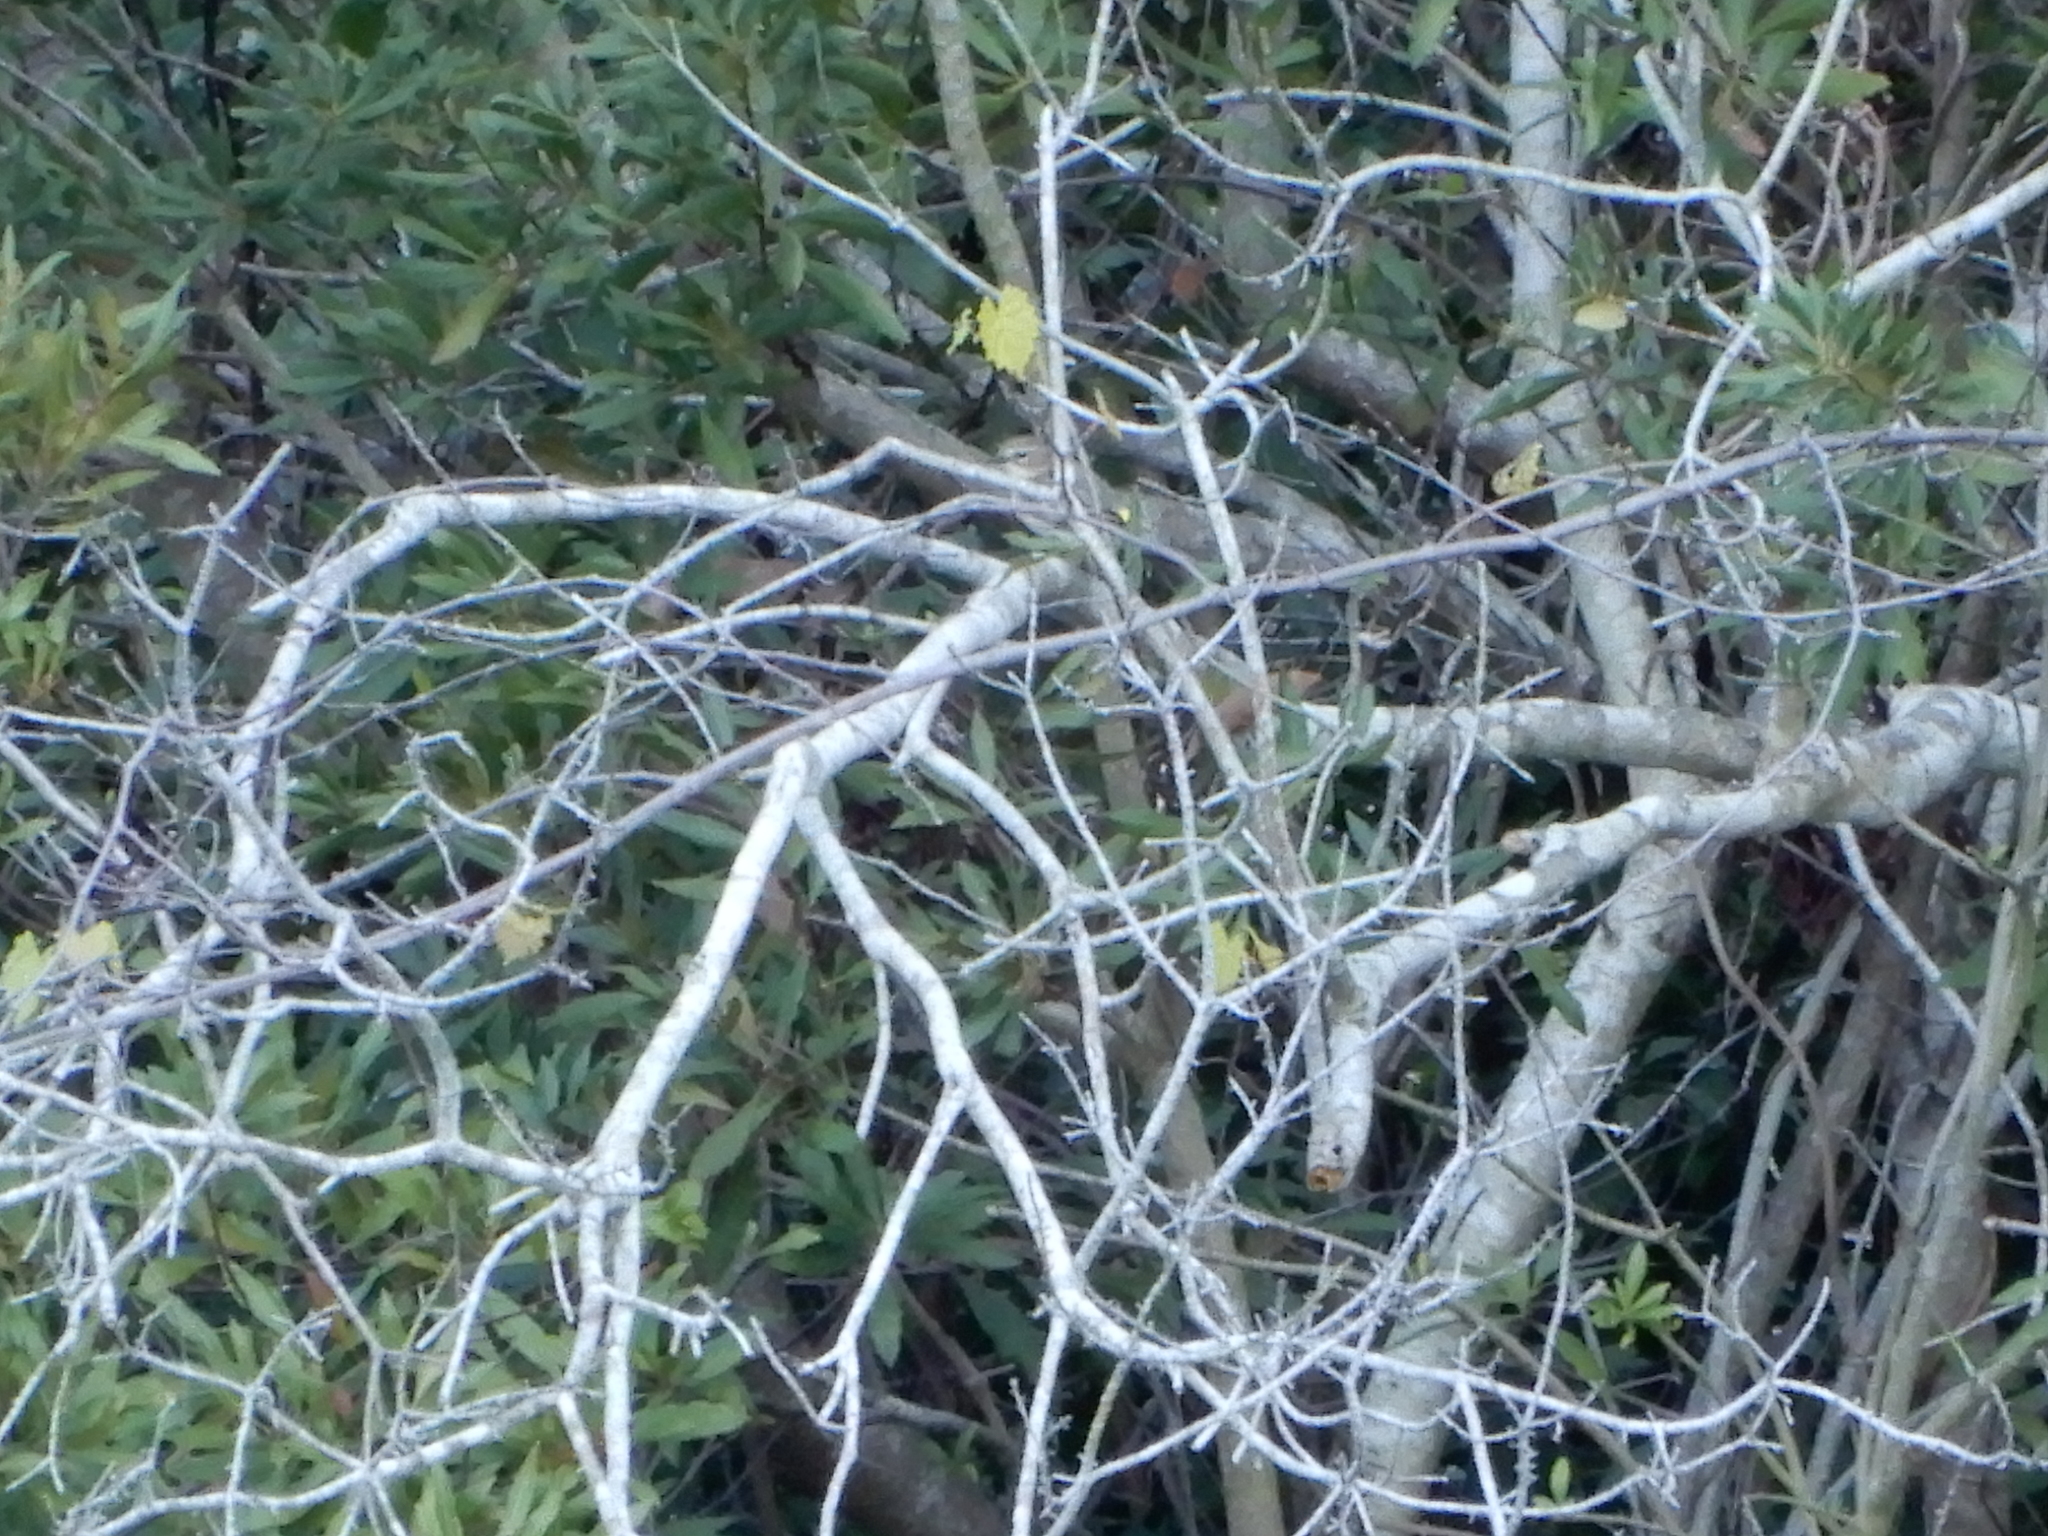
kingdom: Animalia
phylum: Chordata
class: Aves
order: Passeriformes
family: Parulidae
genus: Setophaga
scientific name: Setophaga coronata
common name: Myrtle warbler
